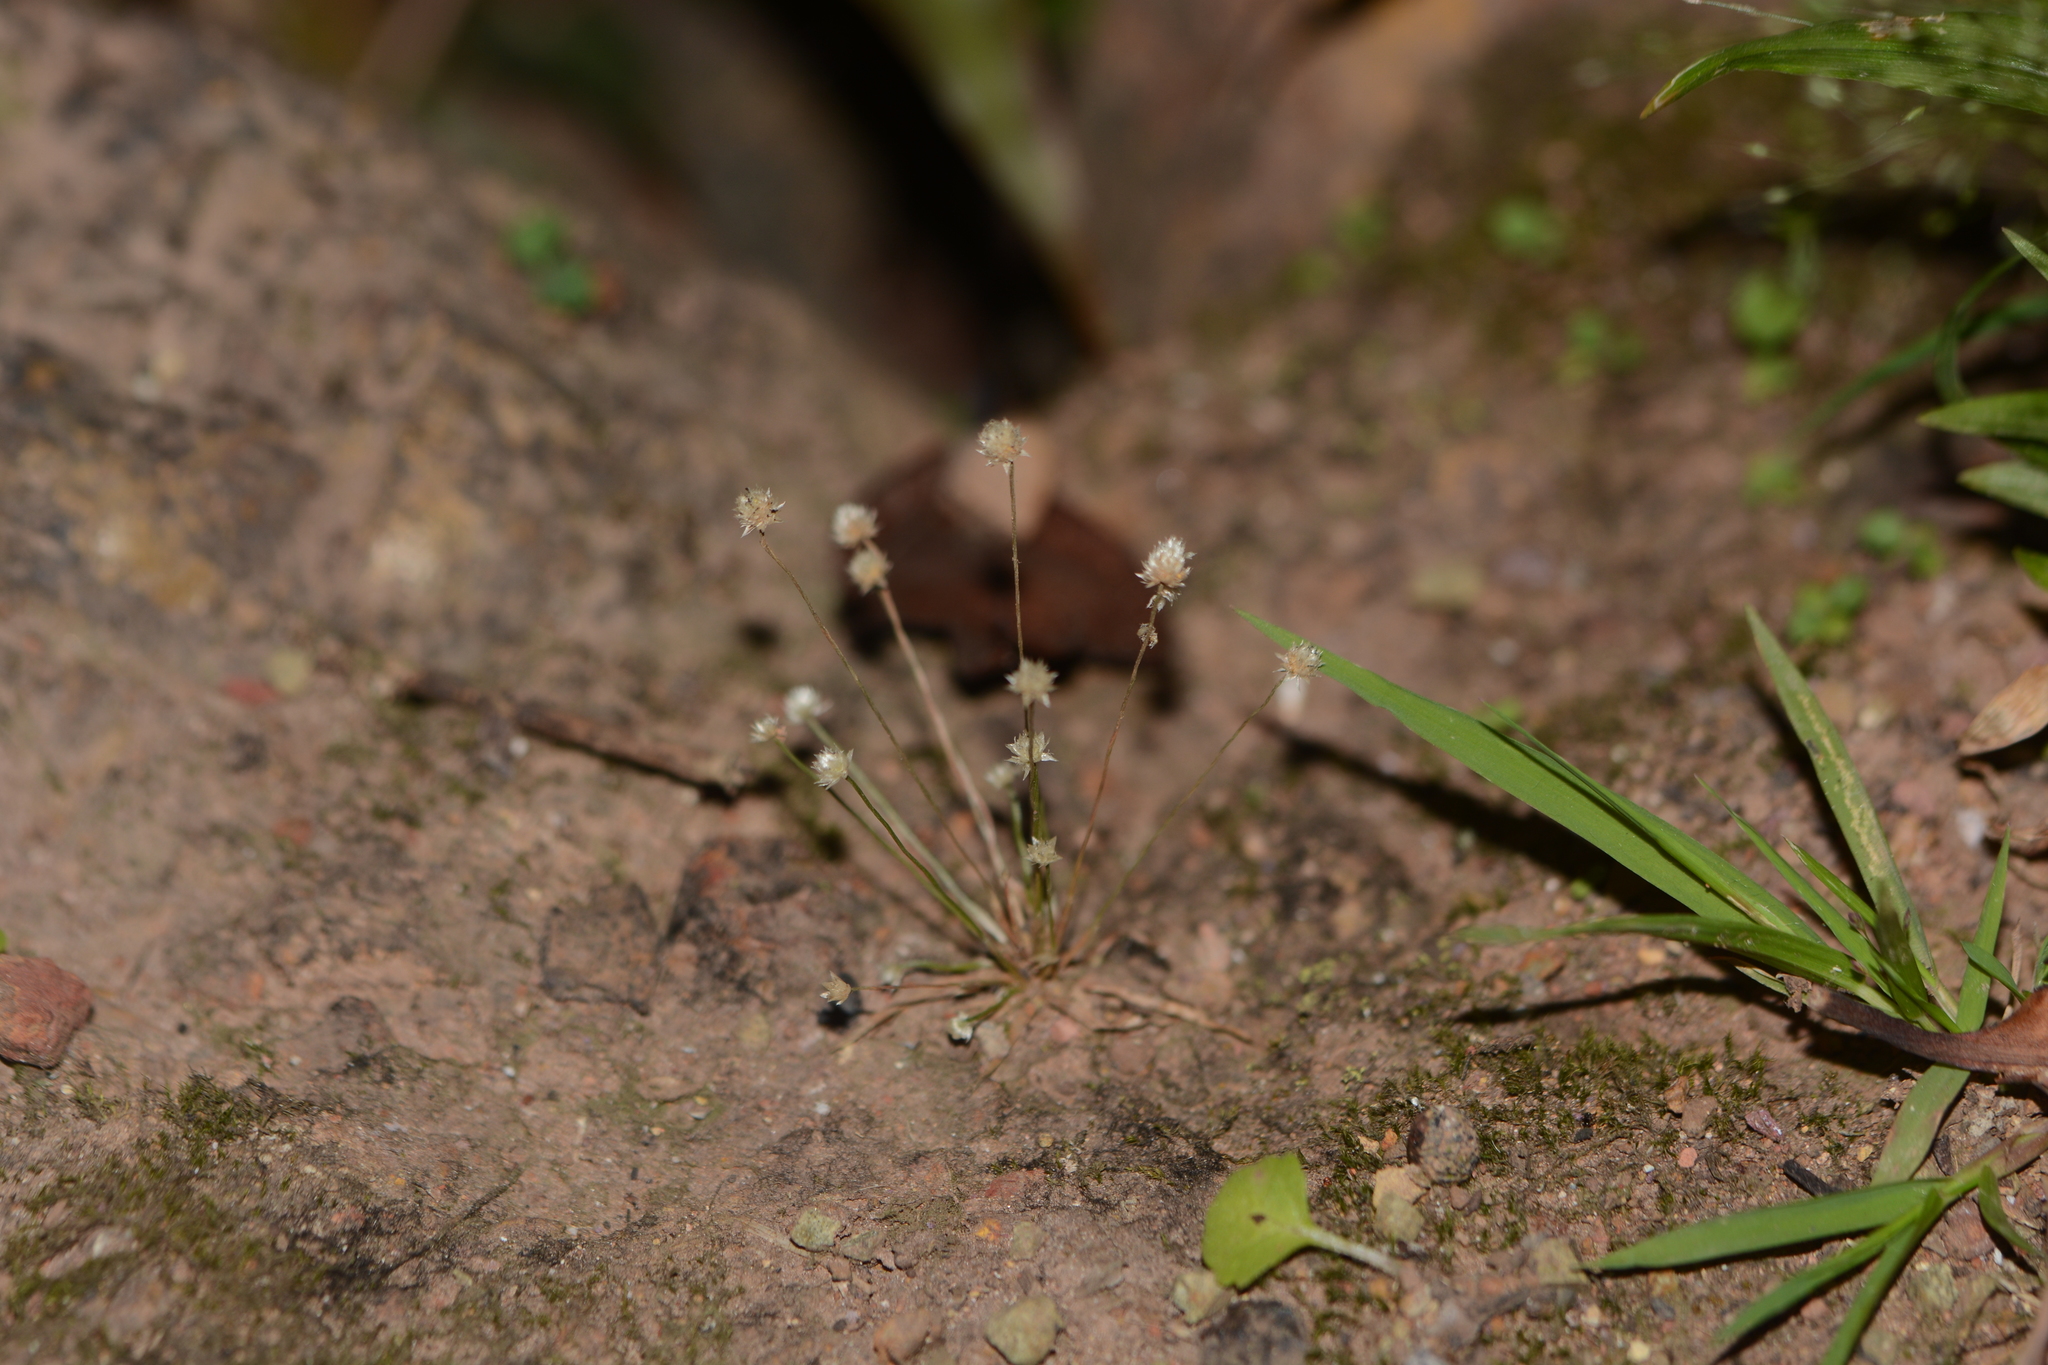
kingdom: Plantae
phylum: Tracheophyta
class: Liliopsida
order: Poales
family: Eriocaulaceae
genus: Eriocaulon
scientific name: Eriocaulon stellulatum
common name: Starry pipewort
